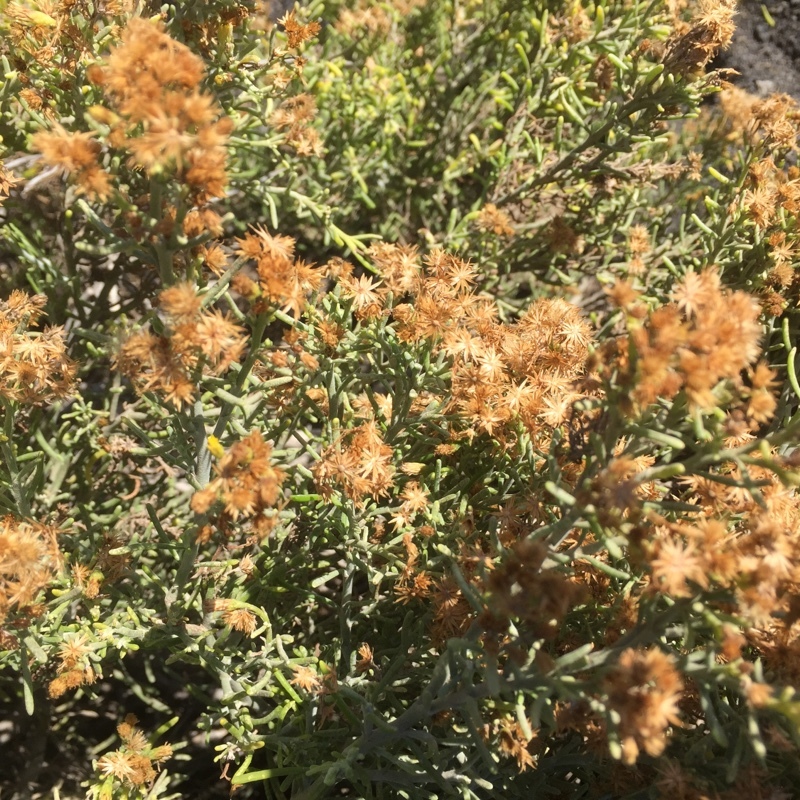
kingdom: Plantae
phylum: Tracheophyta
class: Magnoliopsida
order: Asterales
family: Asteraceae
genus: Schizogyne
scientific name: Schizogyne sericea
